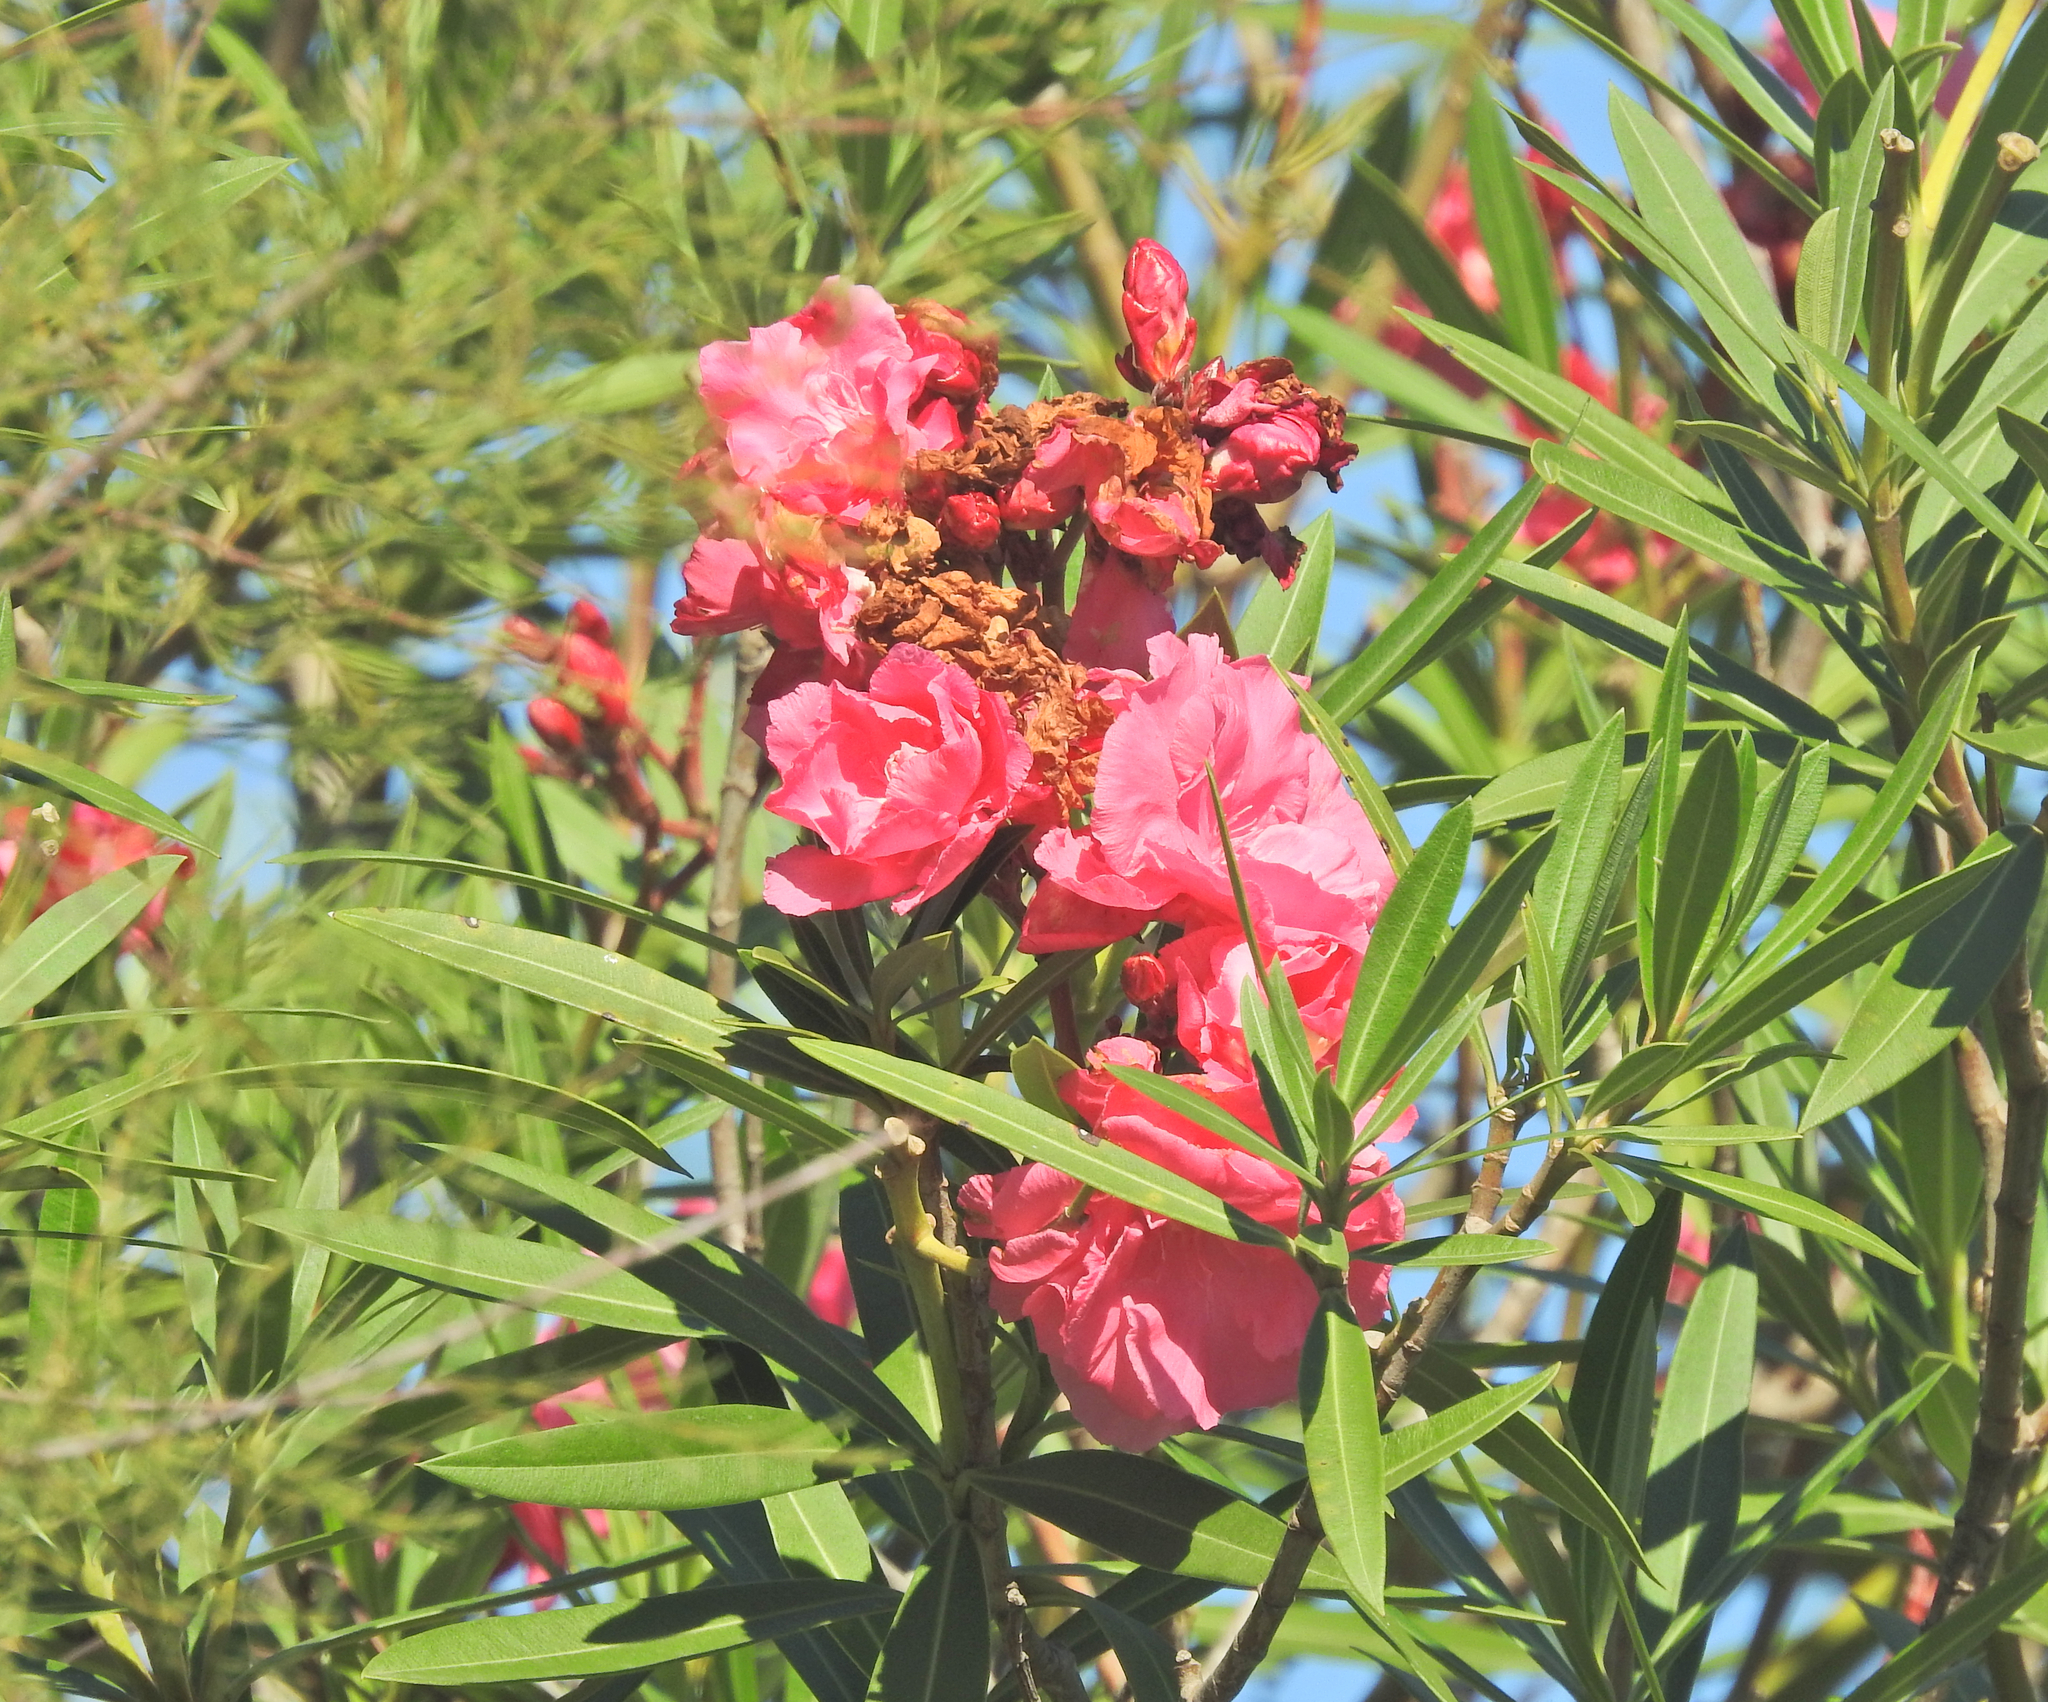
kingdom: Plantae
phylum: Tracheophyta
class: Magnoliopsida
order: Gentianales
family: Apocynaceae
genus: Nerium
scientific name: Nerium oleander
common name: Oleander
